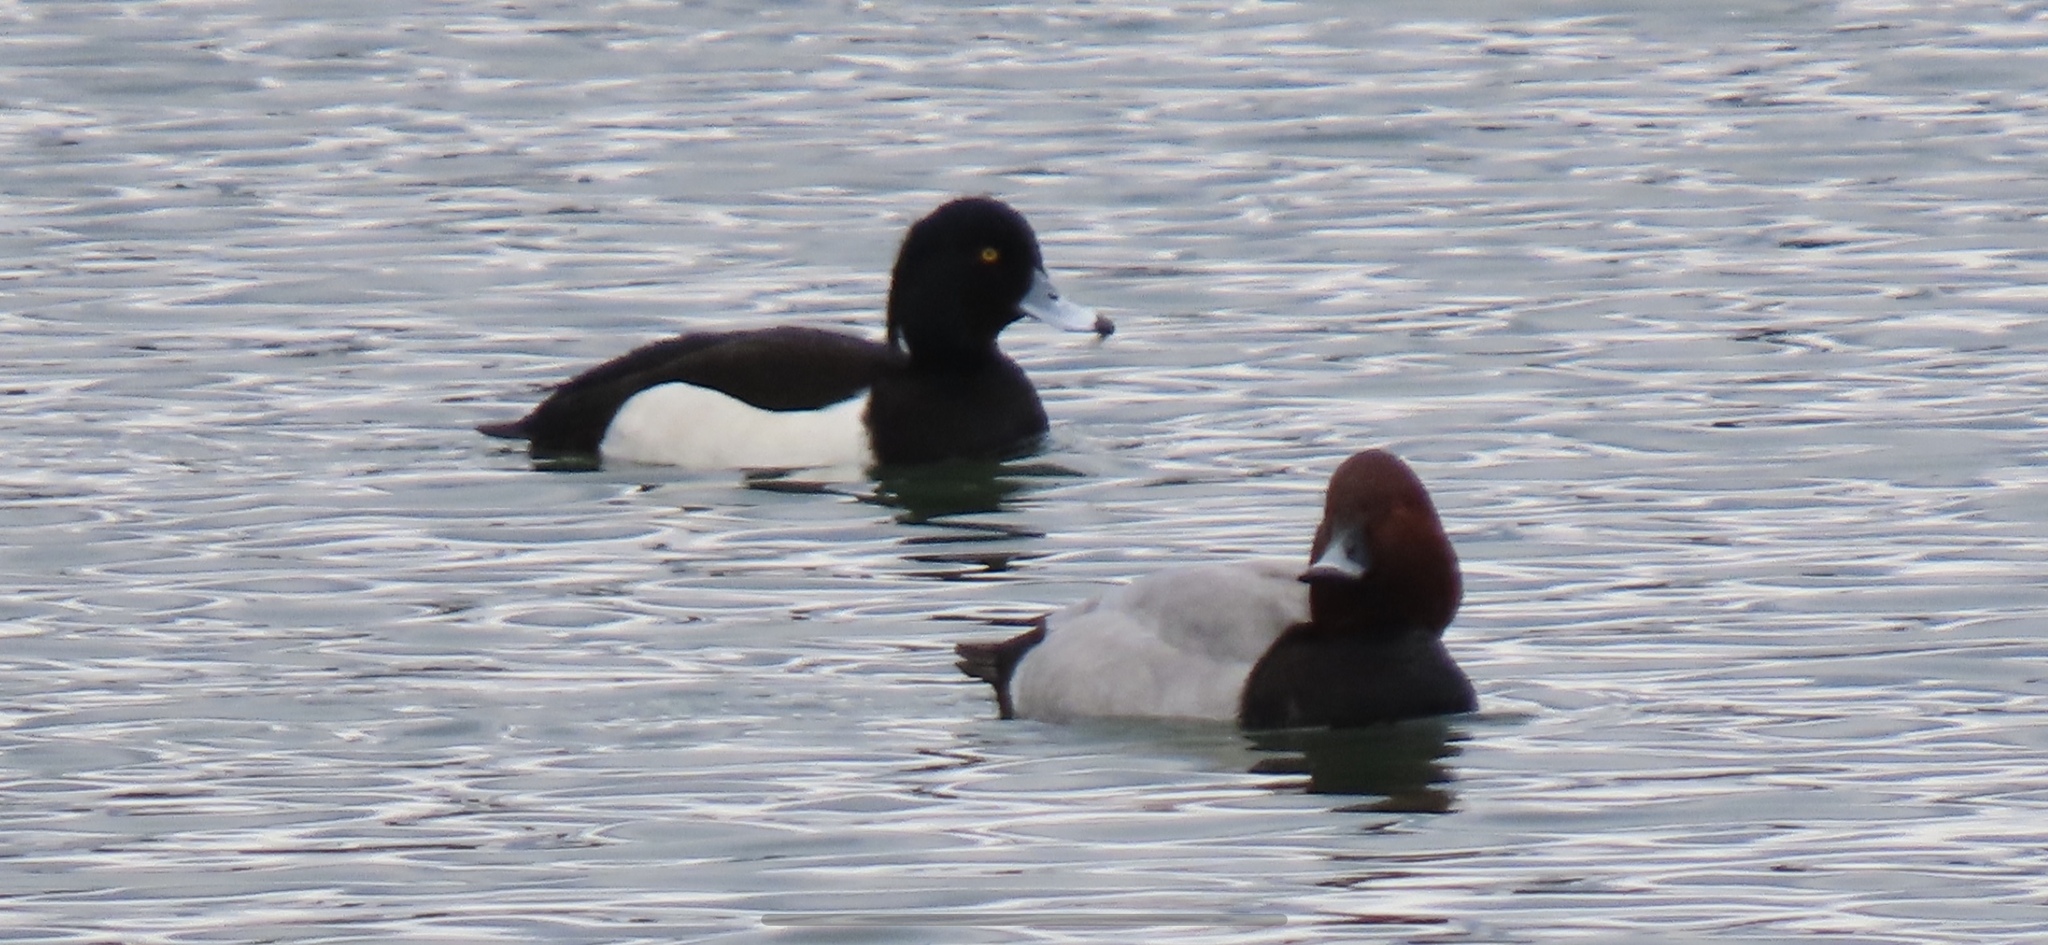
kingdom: Animalia
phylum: Chordata
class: Aves
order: Anseriformes
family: Anatidae
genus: Aythya
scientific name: Aythya fuligula
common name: Tufted duck
